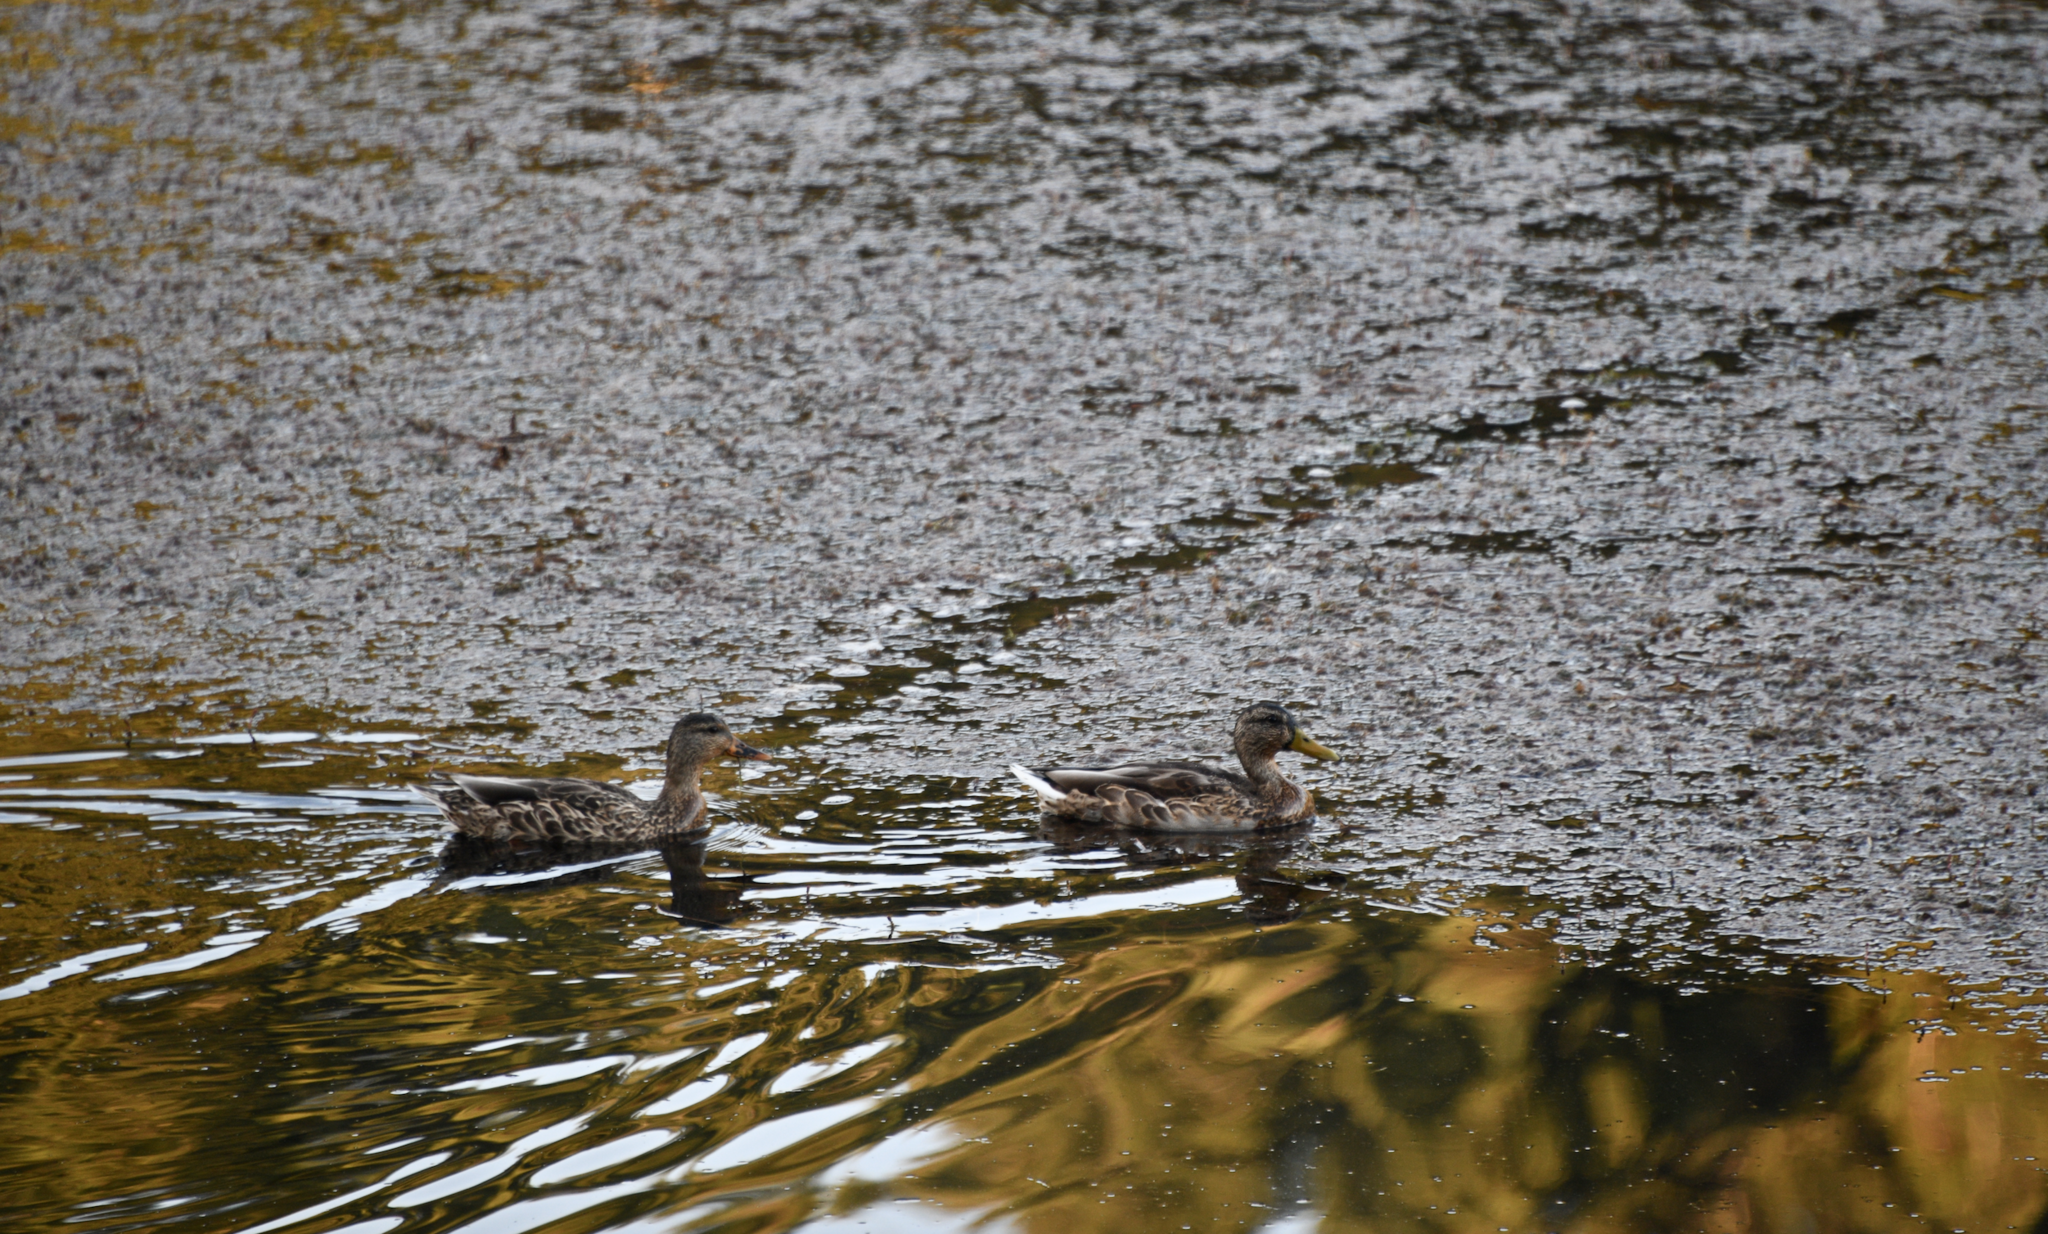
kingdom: Animalia
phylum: Chordata
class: Aves
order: Anseriformes
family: Anatidae
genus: Anas
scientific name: Anas platyrhynchos
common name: Mallard
